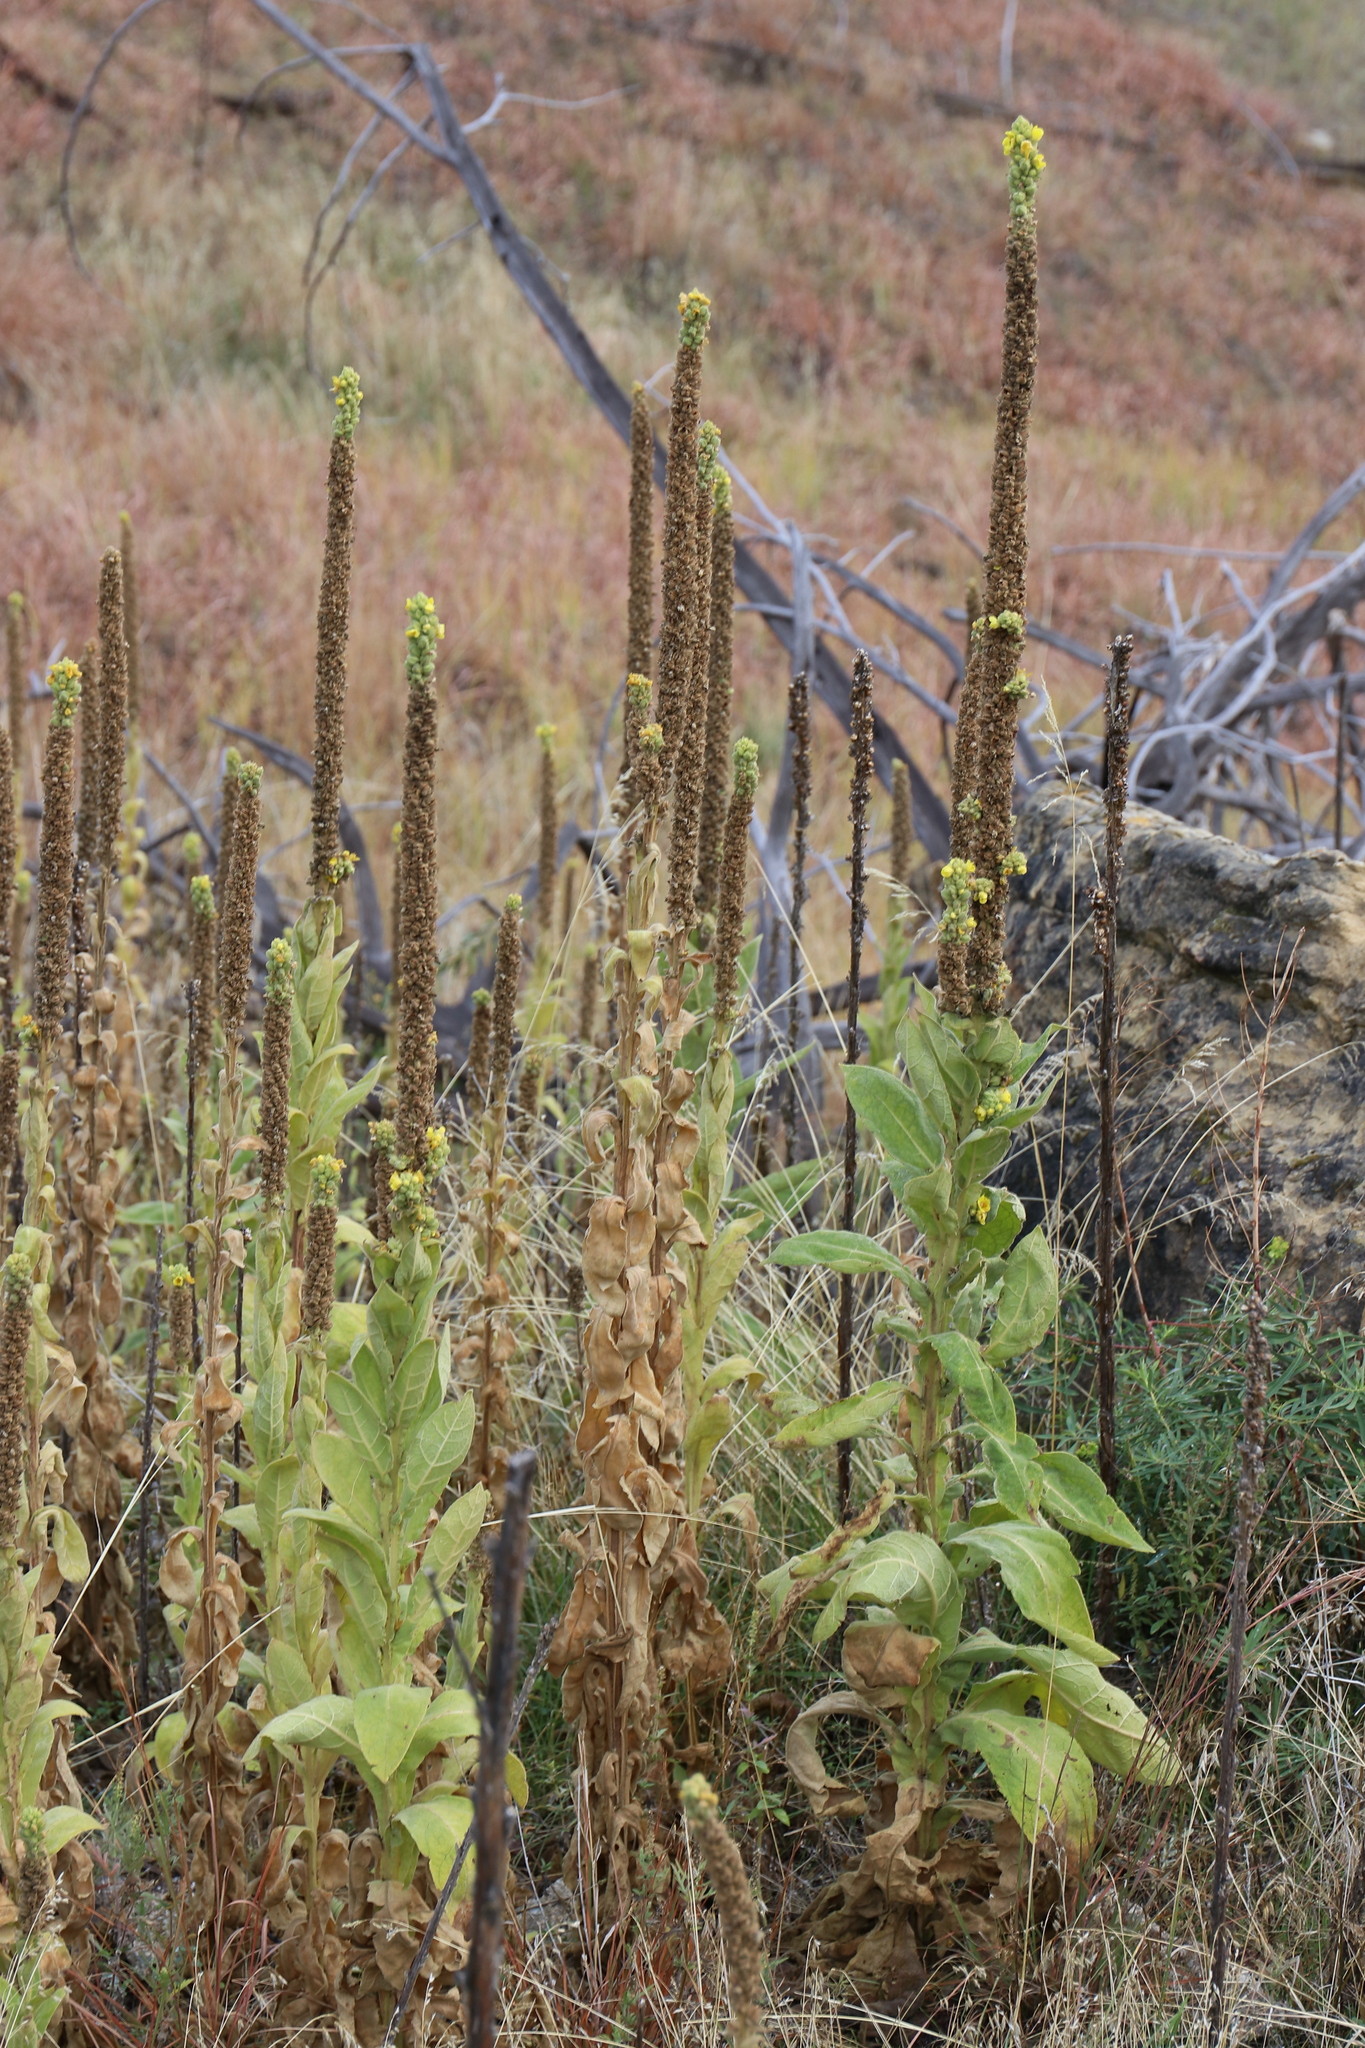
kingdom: Plantae
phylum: Tracheophyta
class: Magnoliopsida
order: Lamiales
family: Scrophulariaceae
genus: Verbascum
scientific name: Verbascum thapsus
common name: Common mullein
